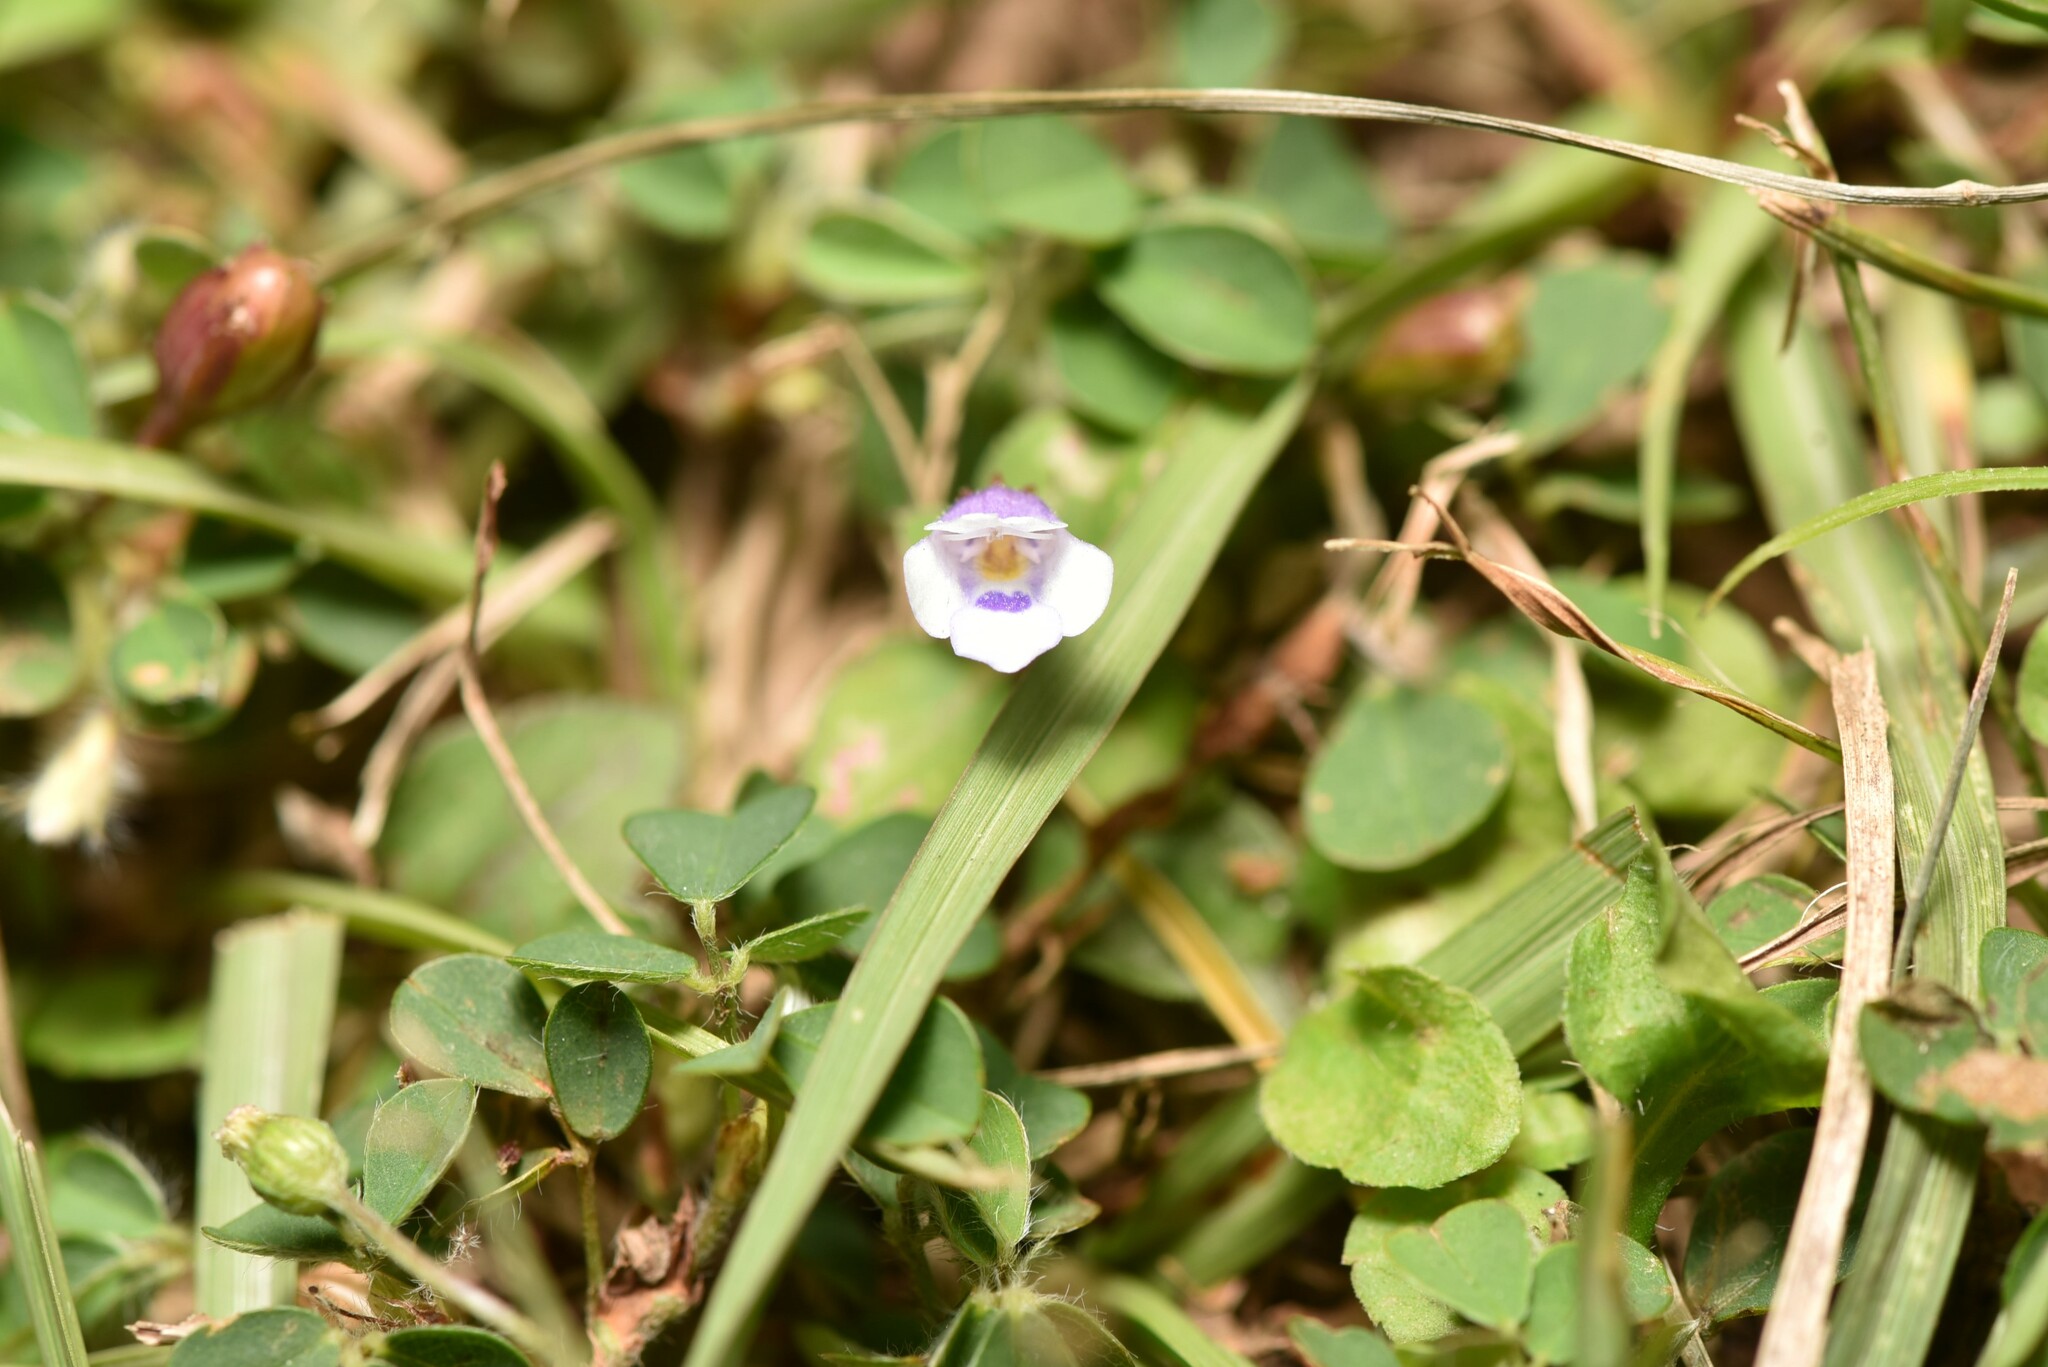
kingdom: Plantae
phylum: Tracheophyta
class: Magnoliopsida
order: Lamiales
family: Linderniaceae
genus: Torenia
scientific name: Torenia crustacea
